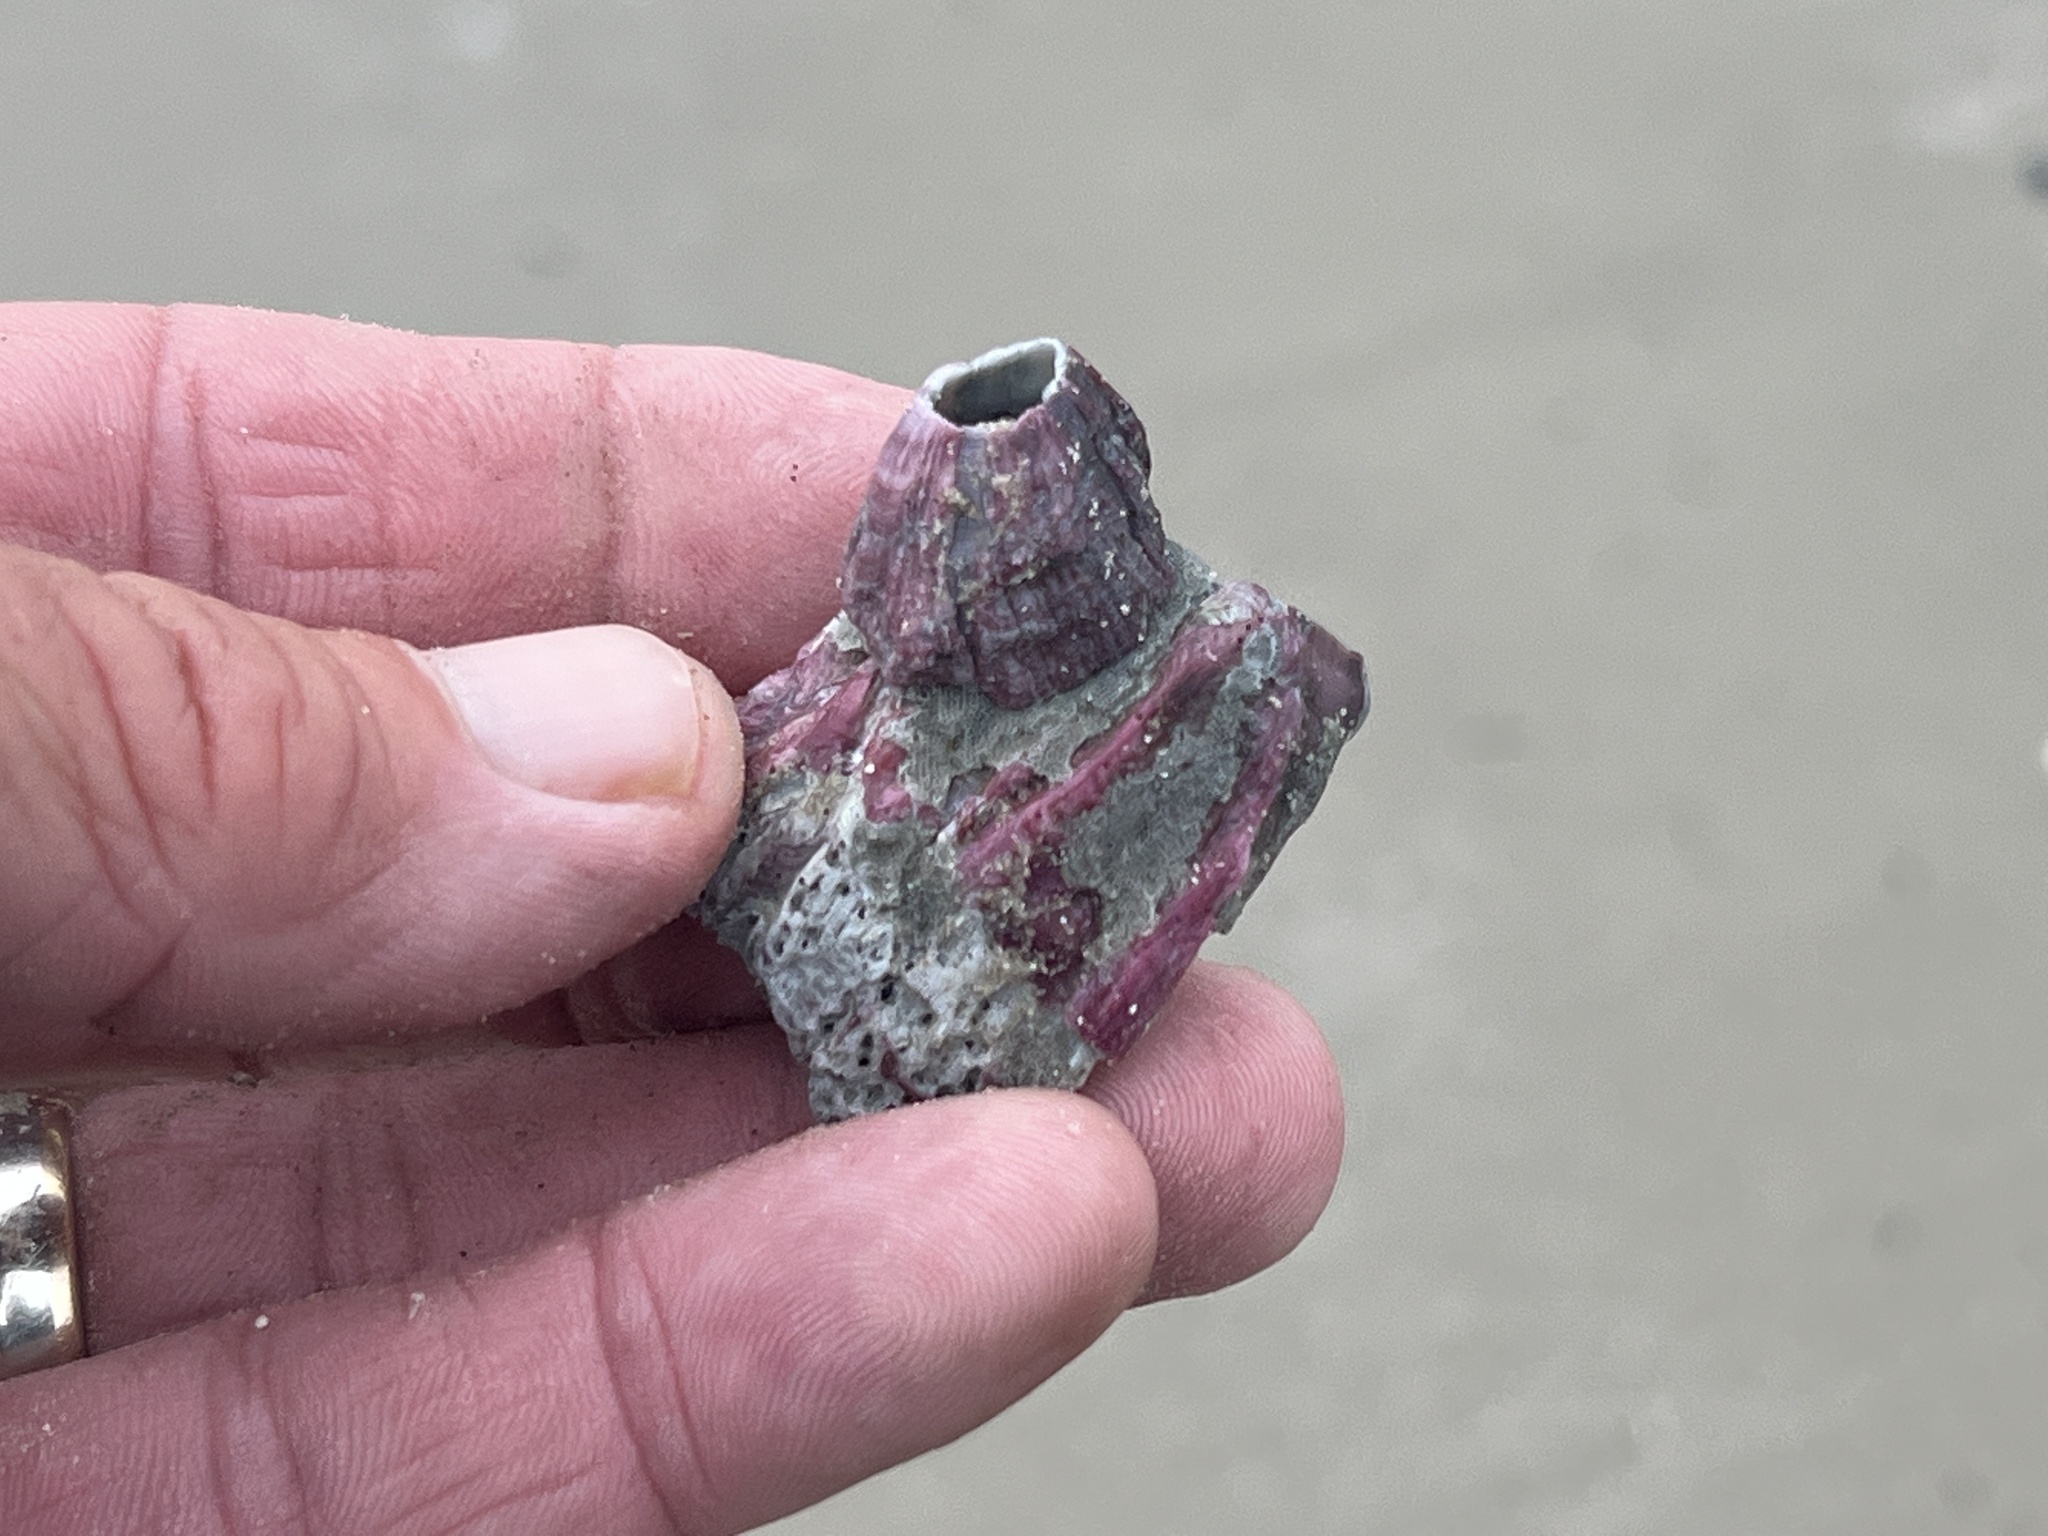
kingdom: Animalia
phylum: Arthropoda
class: Maxillopoda
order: Sessilia
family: Balanidae
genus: Megabalanus
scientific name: Megabalanus tintinnabulum
